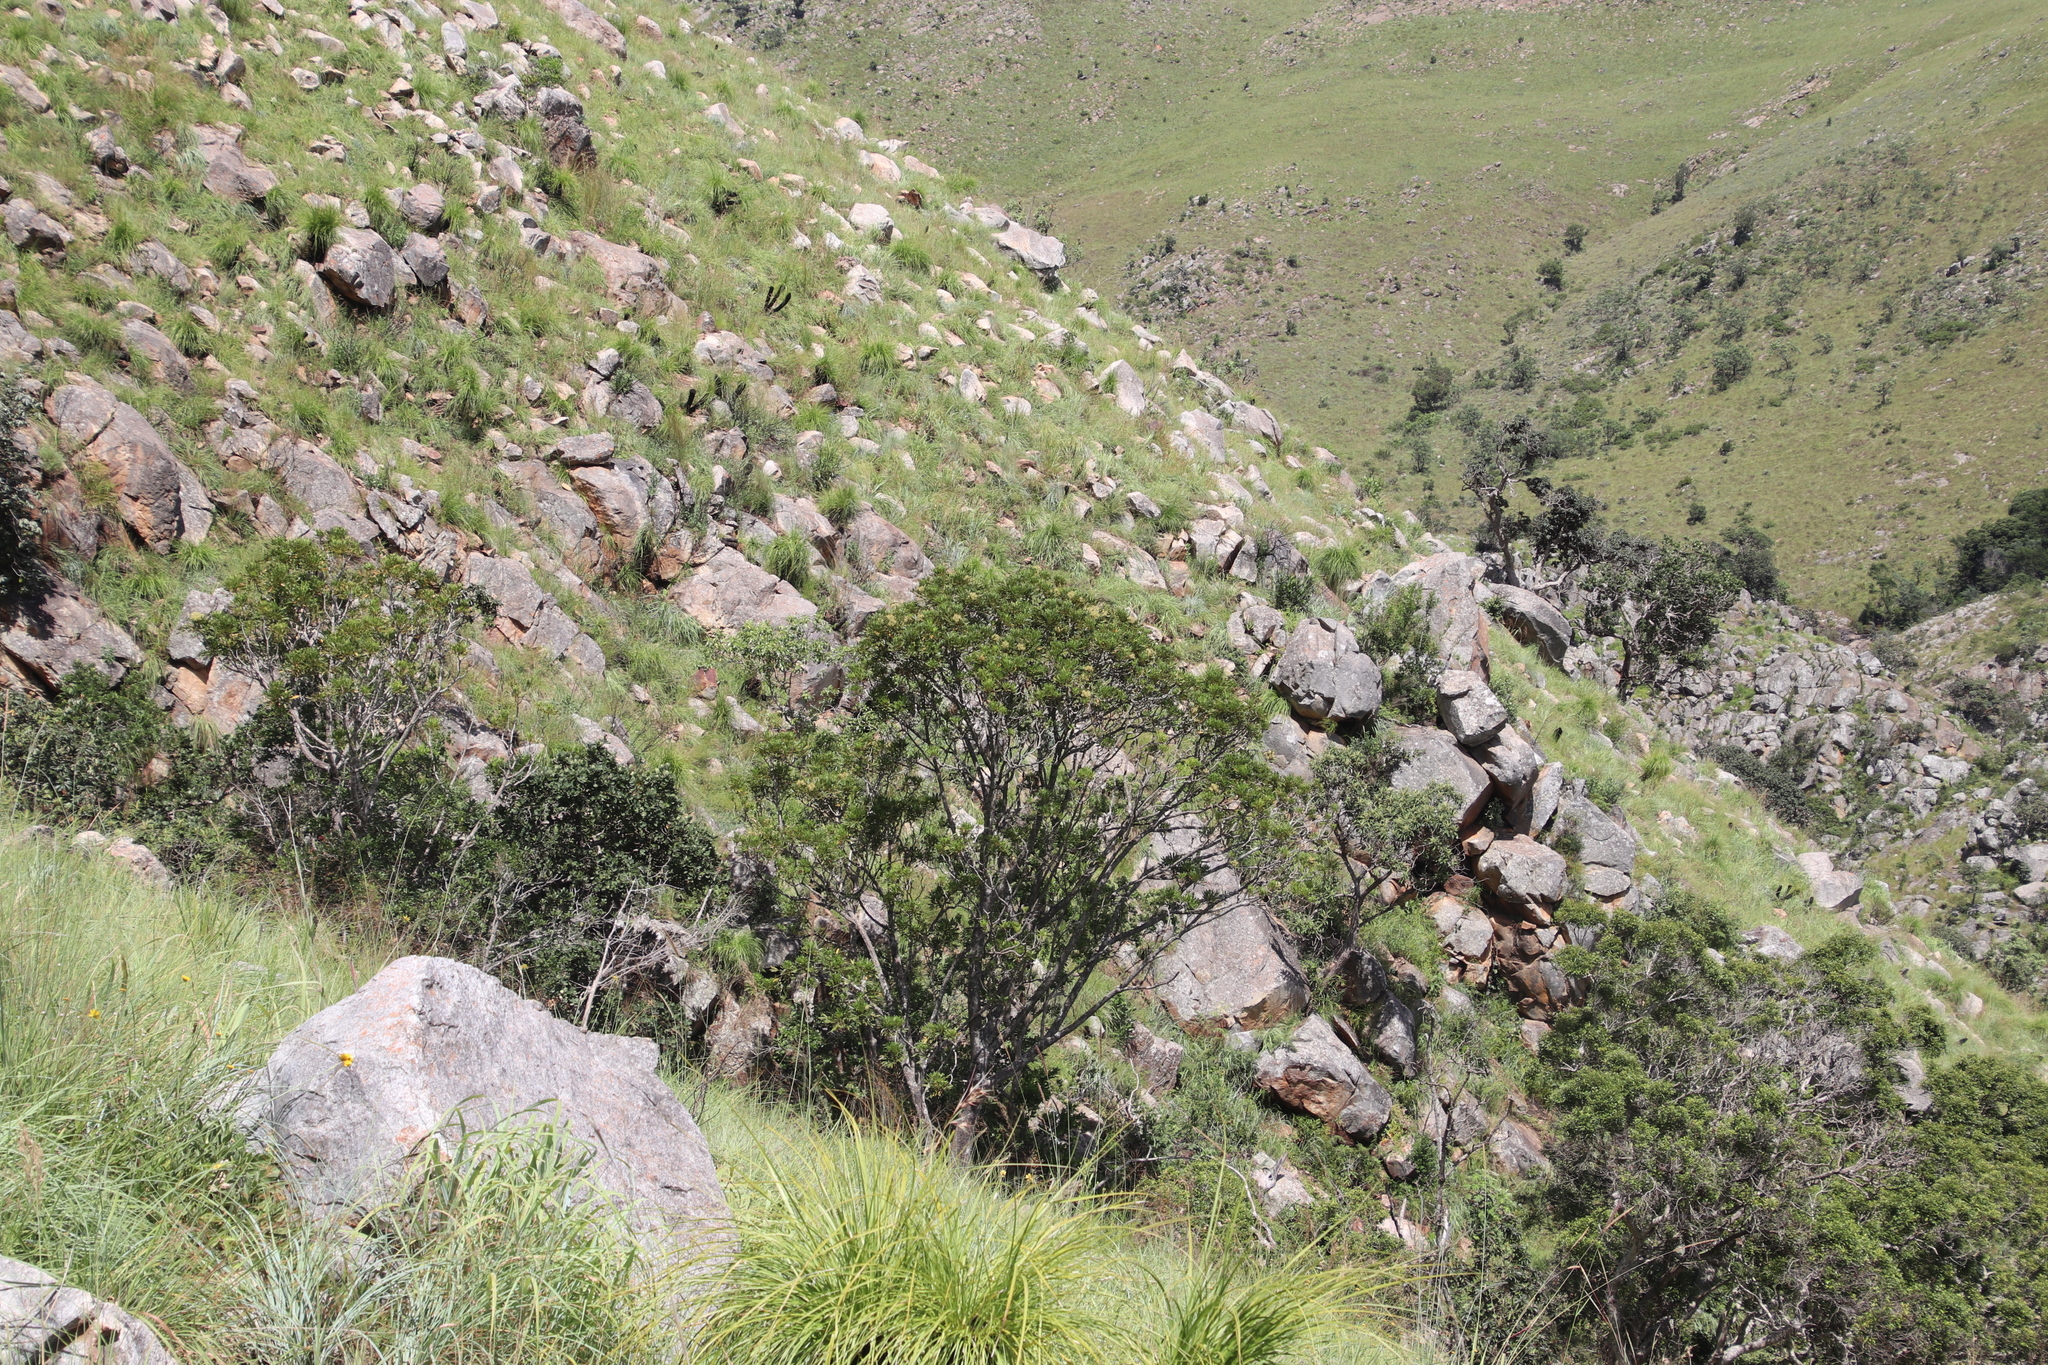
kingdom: Plantae
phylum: Tracheophyta
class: Magnoliopsida
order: Apiales
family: Araliaceae
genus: Neocussonia
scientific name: Neocussonia umbellifera
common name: False cabbage tree
